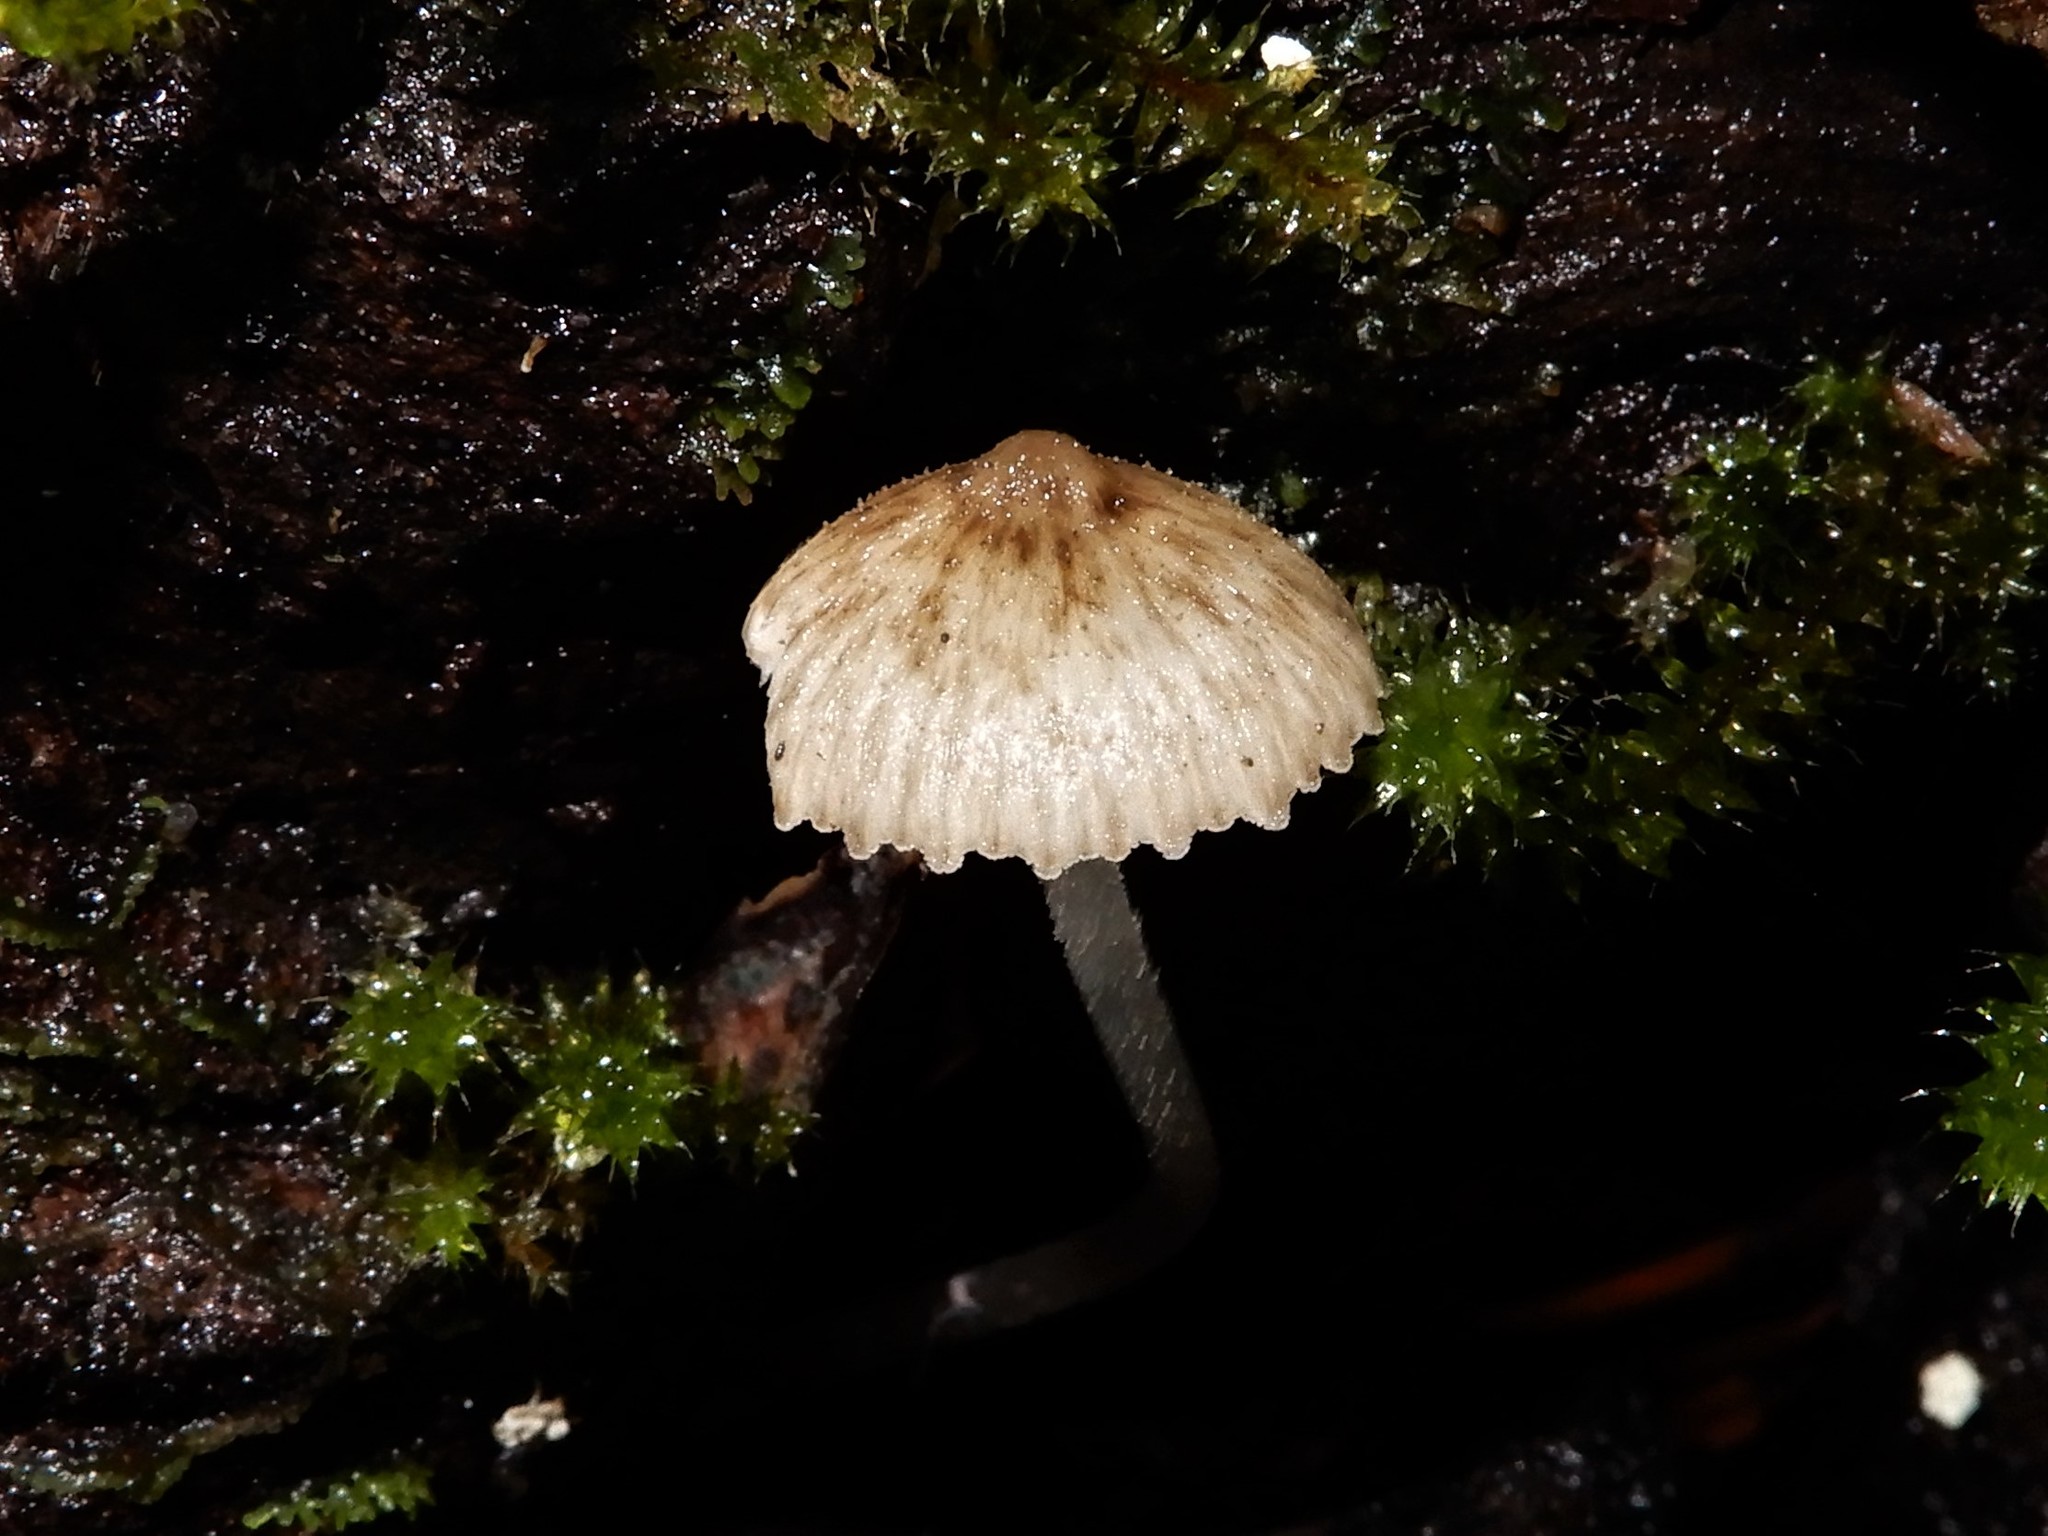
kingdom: Fungi
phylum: Basidiomycota
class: Agaricomycetes
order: Agaricales
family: Porotheleaceae
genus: Pseudohydropus
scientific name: Pseudohydropus parafunebris
